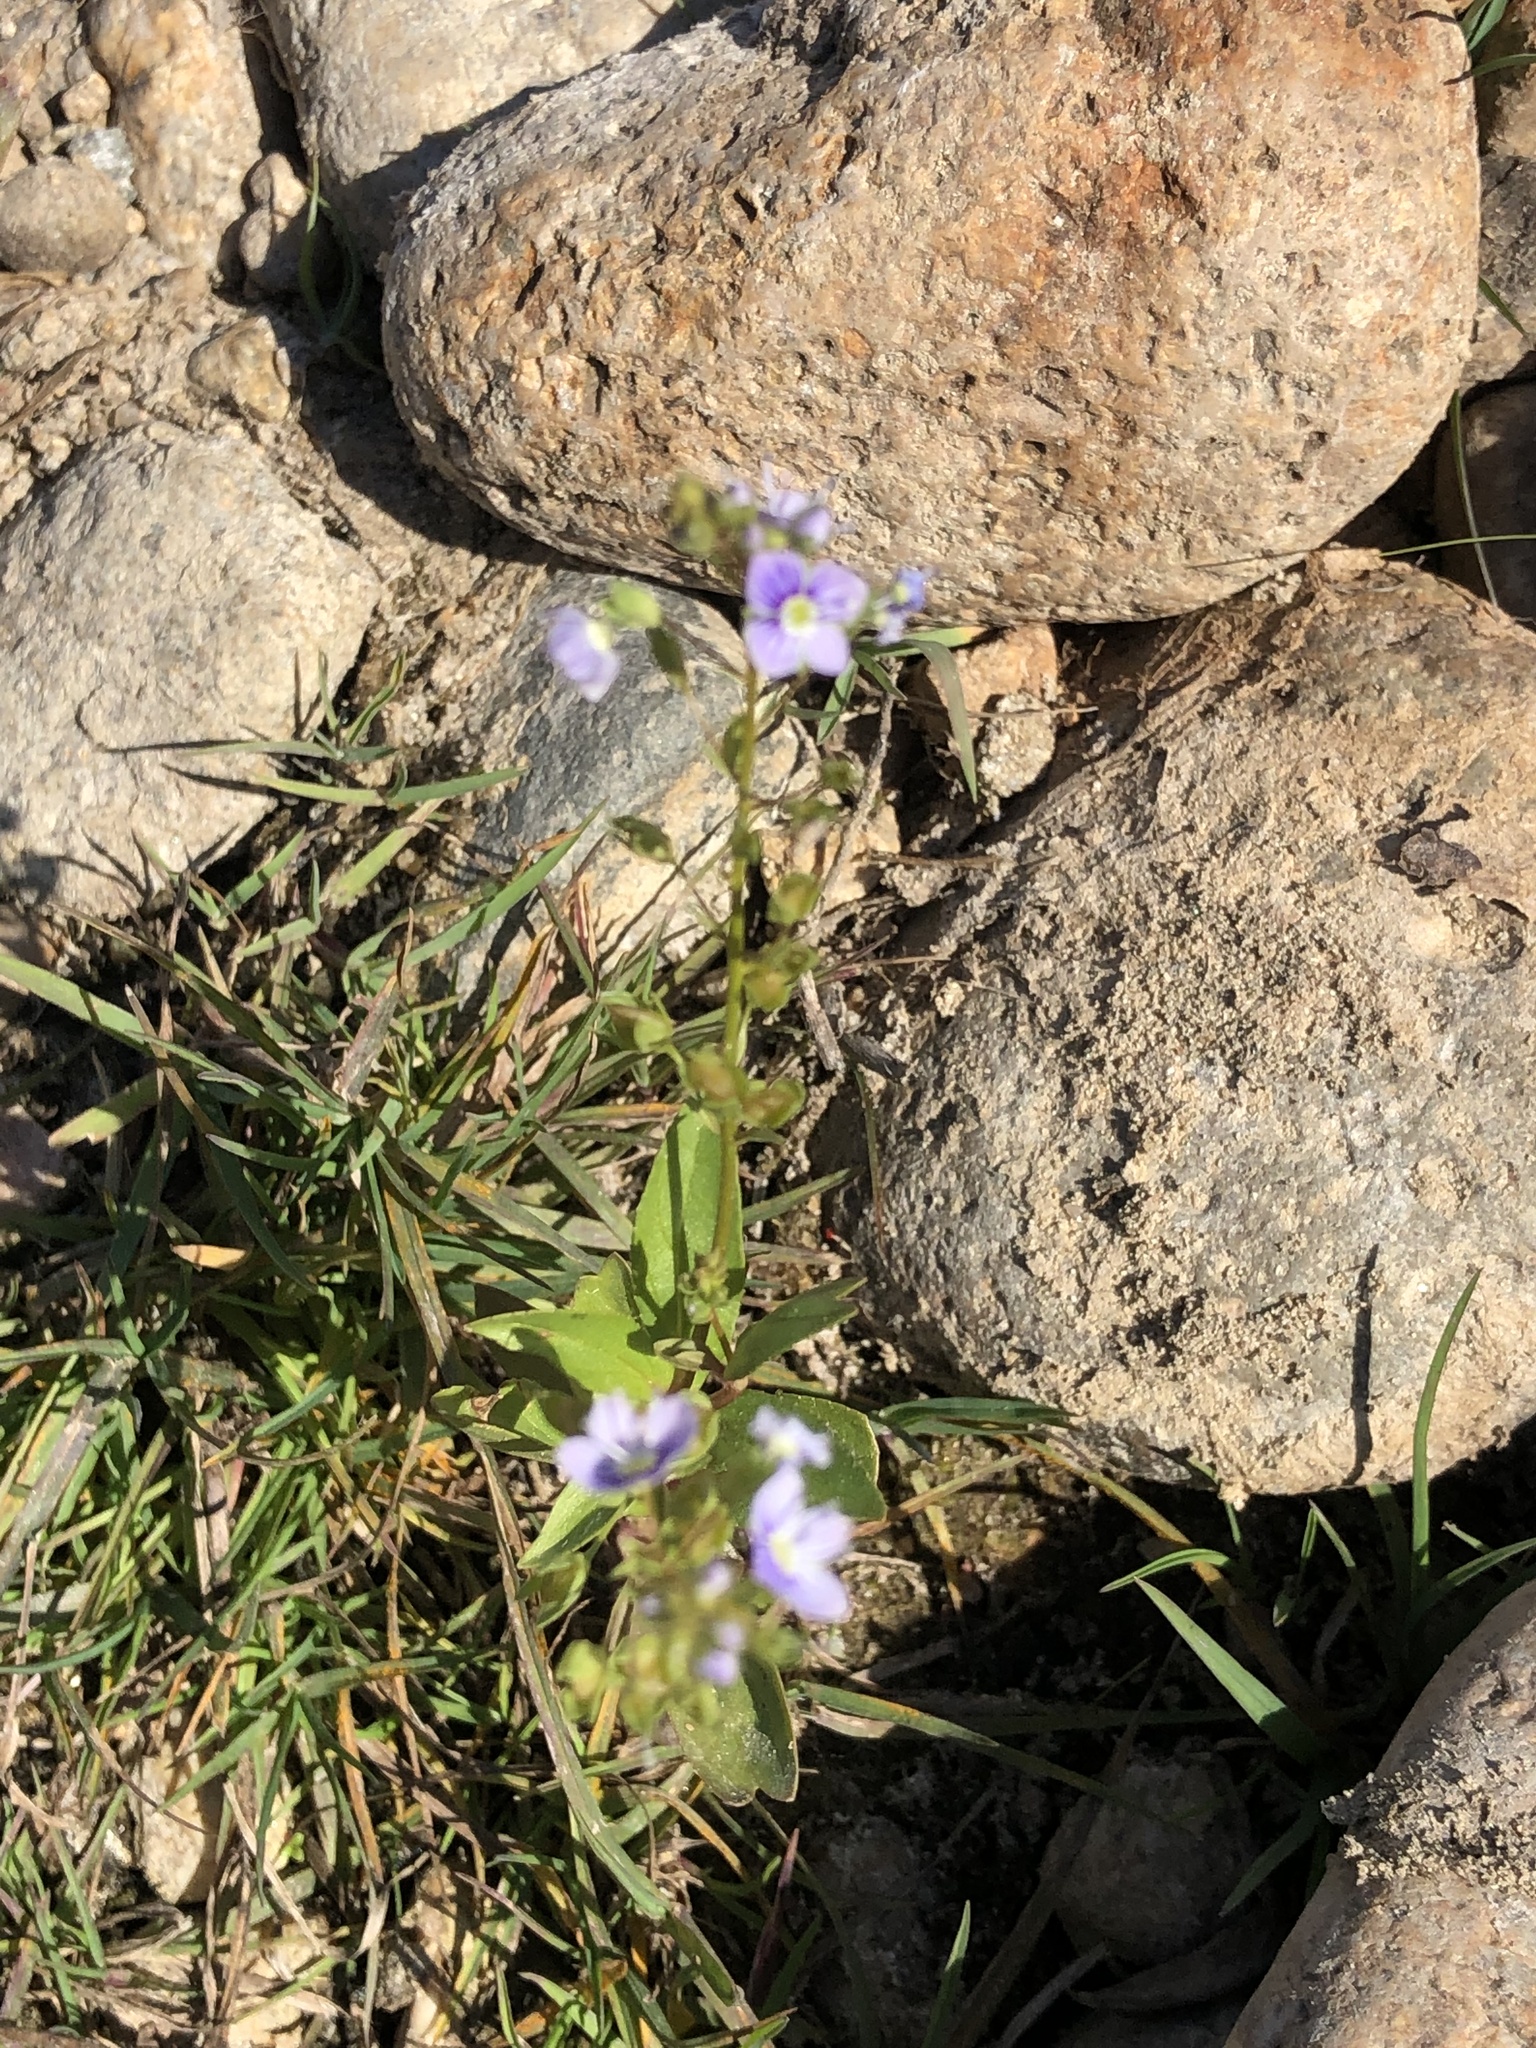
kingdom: Plantae
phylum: Tracheophyta
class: Magnoliopsida
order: Lamiales
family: Plantaginaceae
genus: Veronica
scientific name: Veronica anagallis-aquatica
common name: Water speedwell
